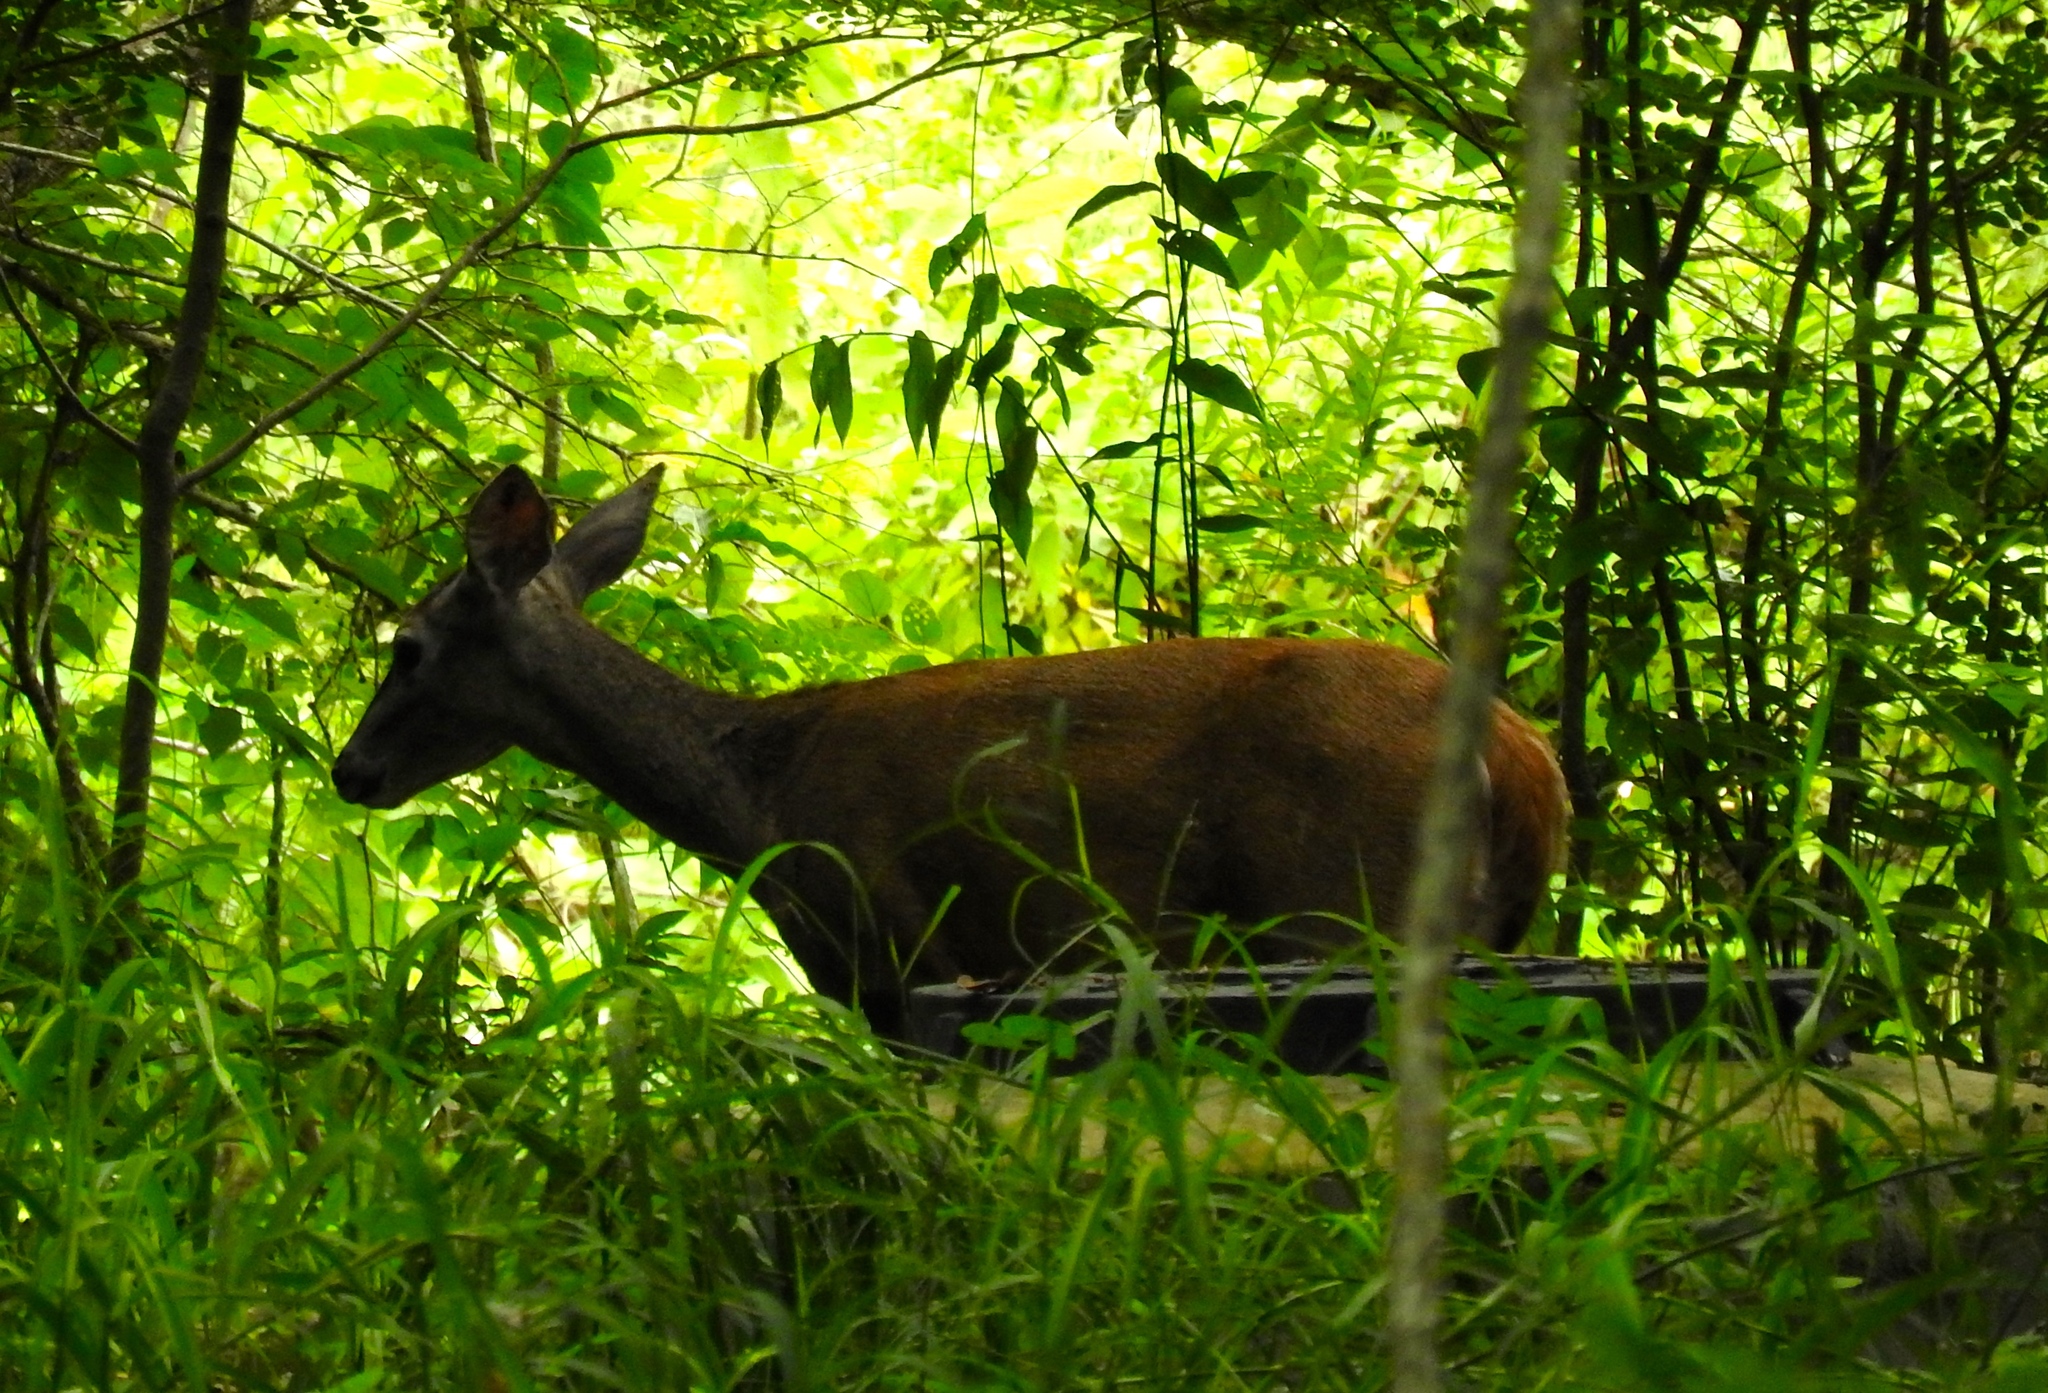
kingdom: Animalia
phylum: Chordata
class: Mammalia
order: Artiodactyla
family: Cervidae
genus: Odocoileus
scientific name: Odocoileus virginianus
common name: White-tailed deer
